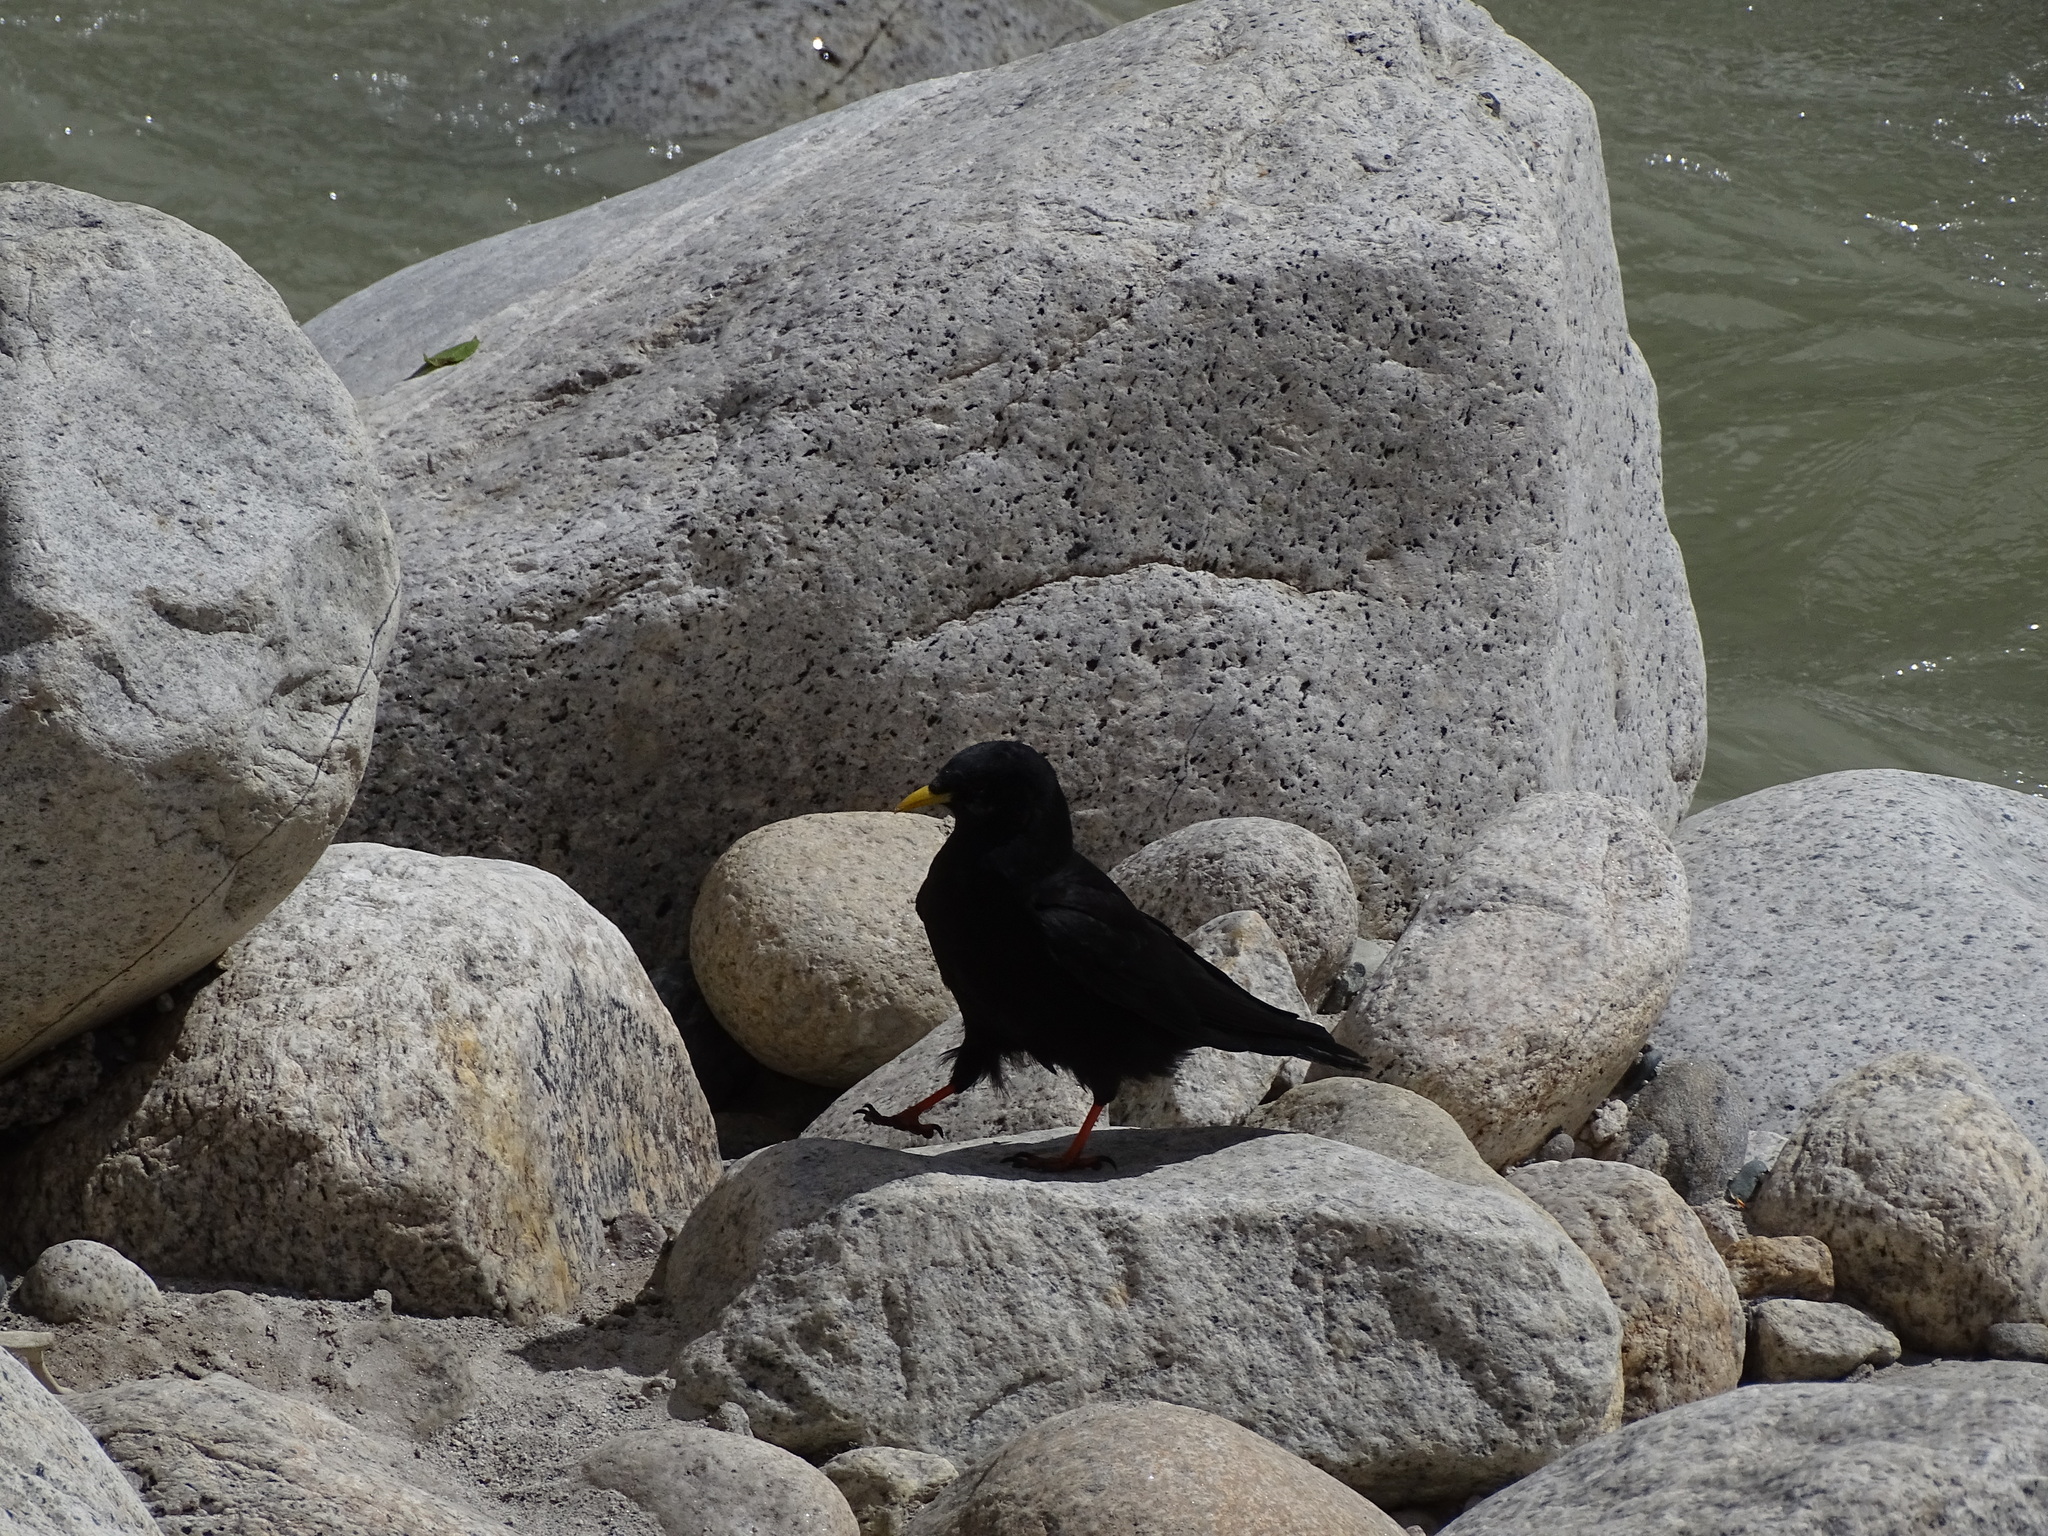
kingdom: Animalia
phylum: Chordata
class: Aves
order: Passeriformes
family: Corvidae
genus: Pyrrhocorax
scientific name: Pyrrhocorax graculus
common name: Alpine chough
